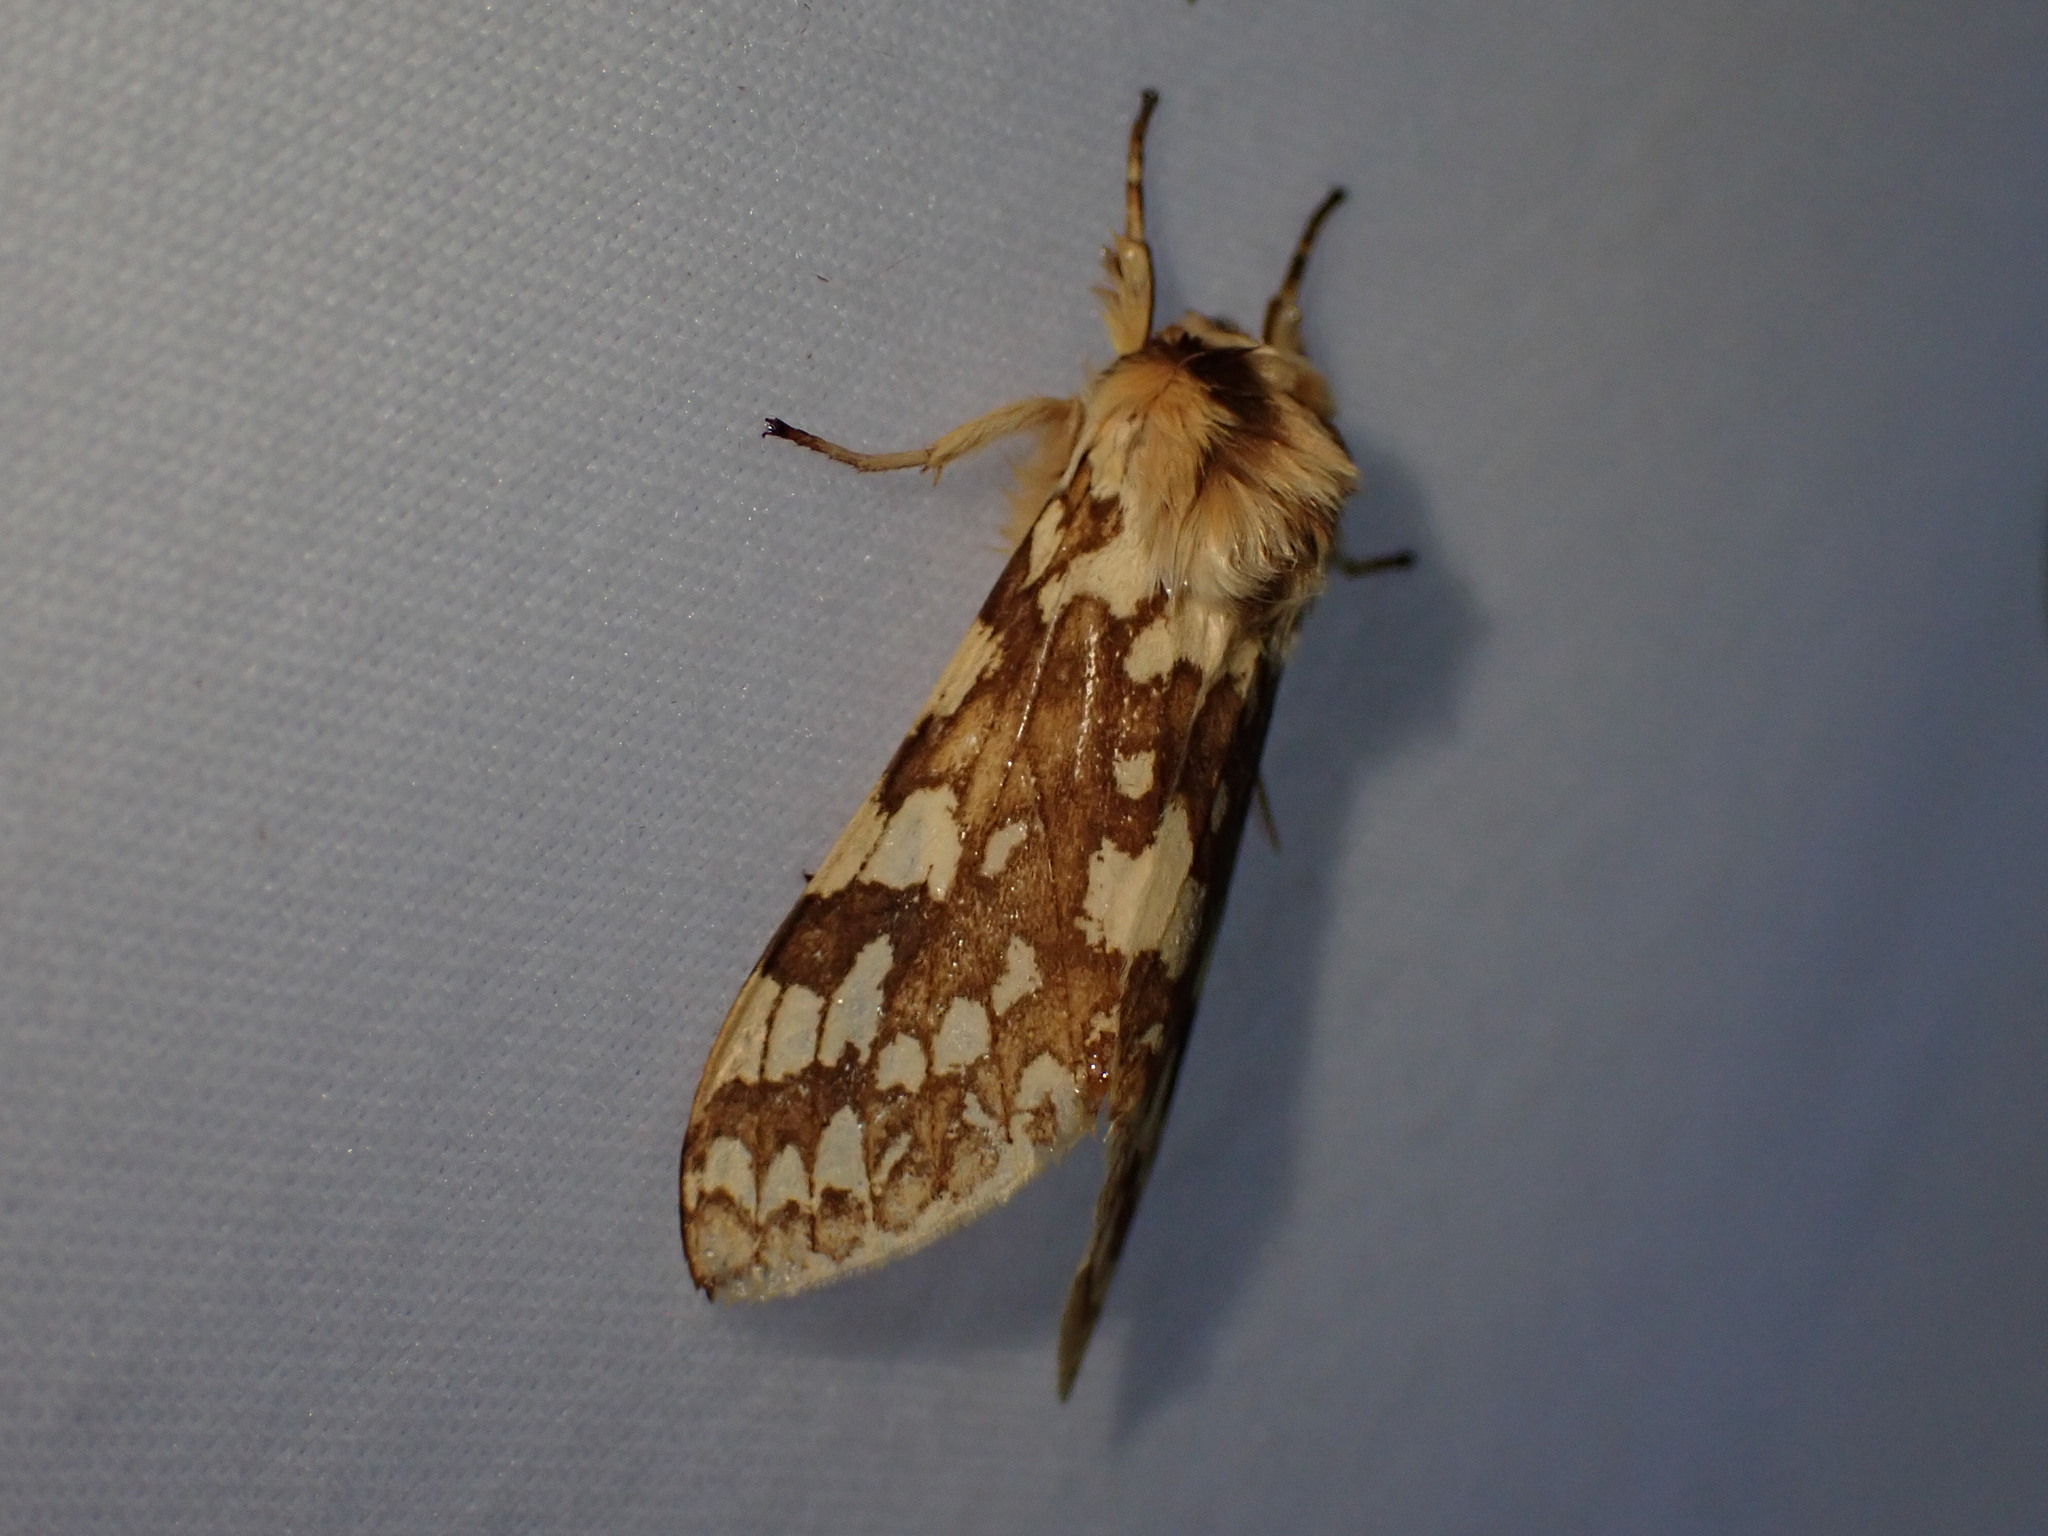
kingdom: Animalia
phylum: Arthropoda
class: Insecta
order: Lepidoptera
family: Erebidae
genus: Lophocampa
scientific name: Lophocampa maculata
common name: Spotted tussock moth
